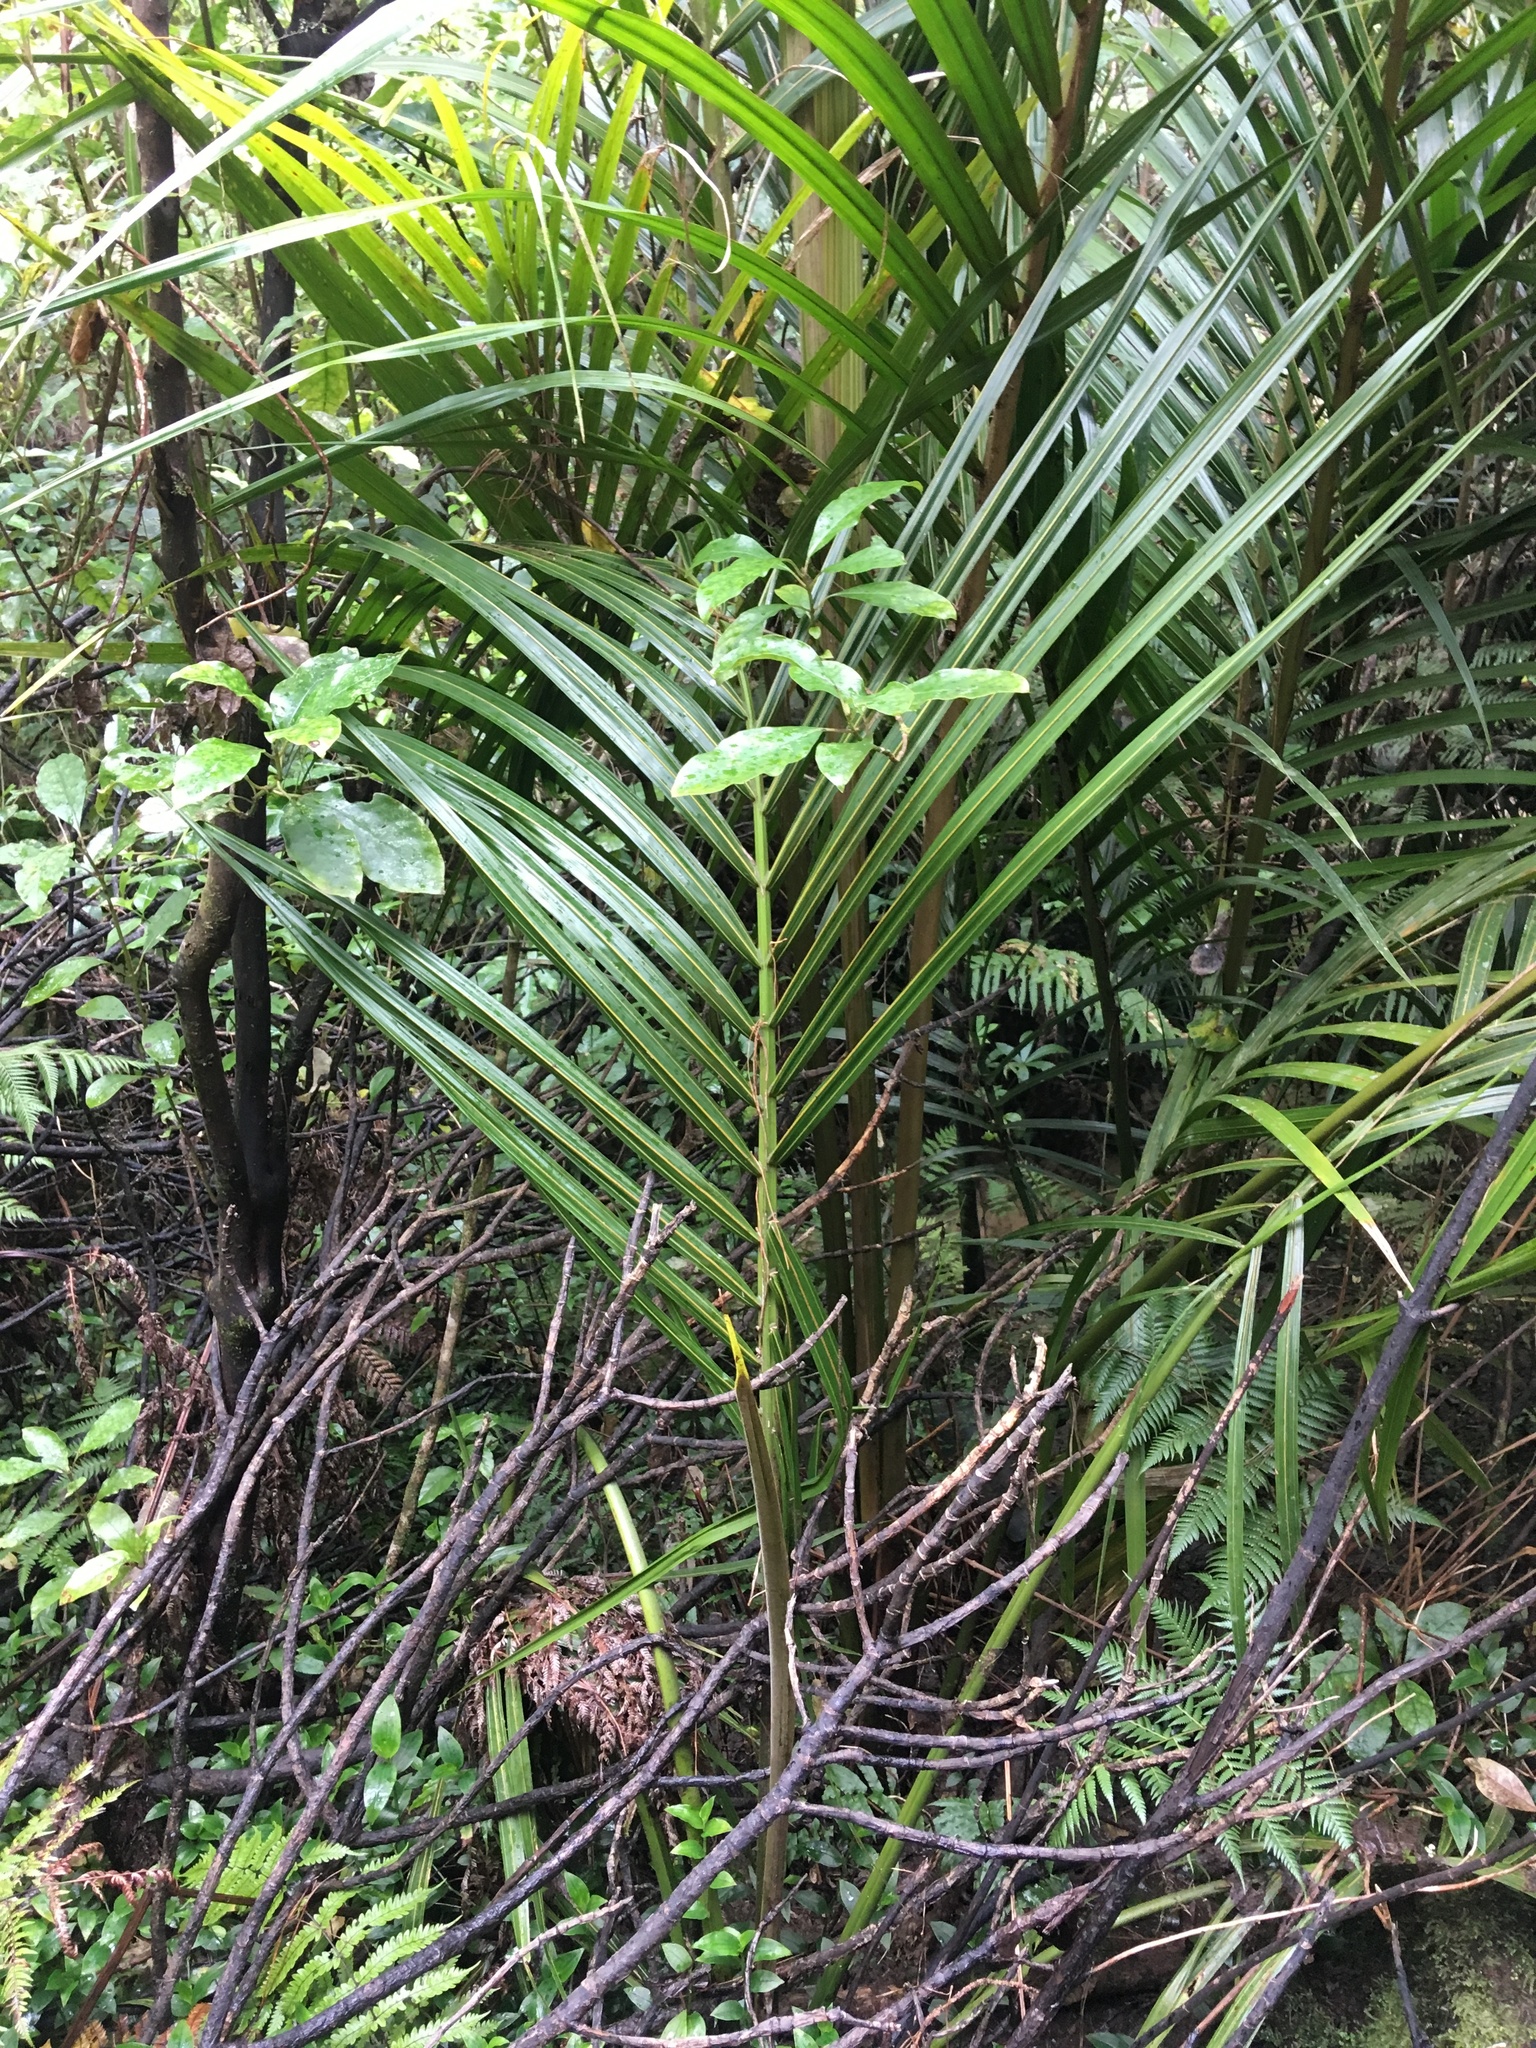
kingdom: Plantae
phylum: Tracheophyta
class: Magnoliopsida
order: Gentianales
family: Rubiaceae
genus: Coprosma
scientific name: Coprosma autumnalis
